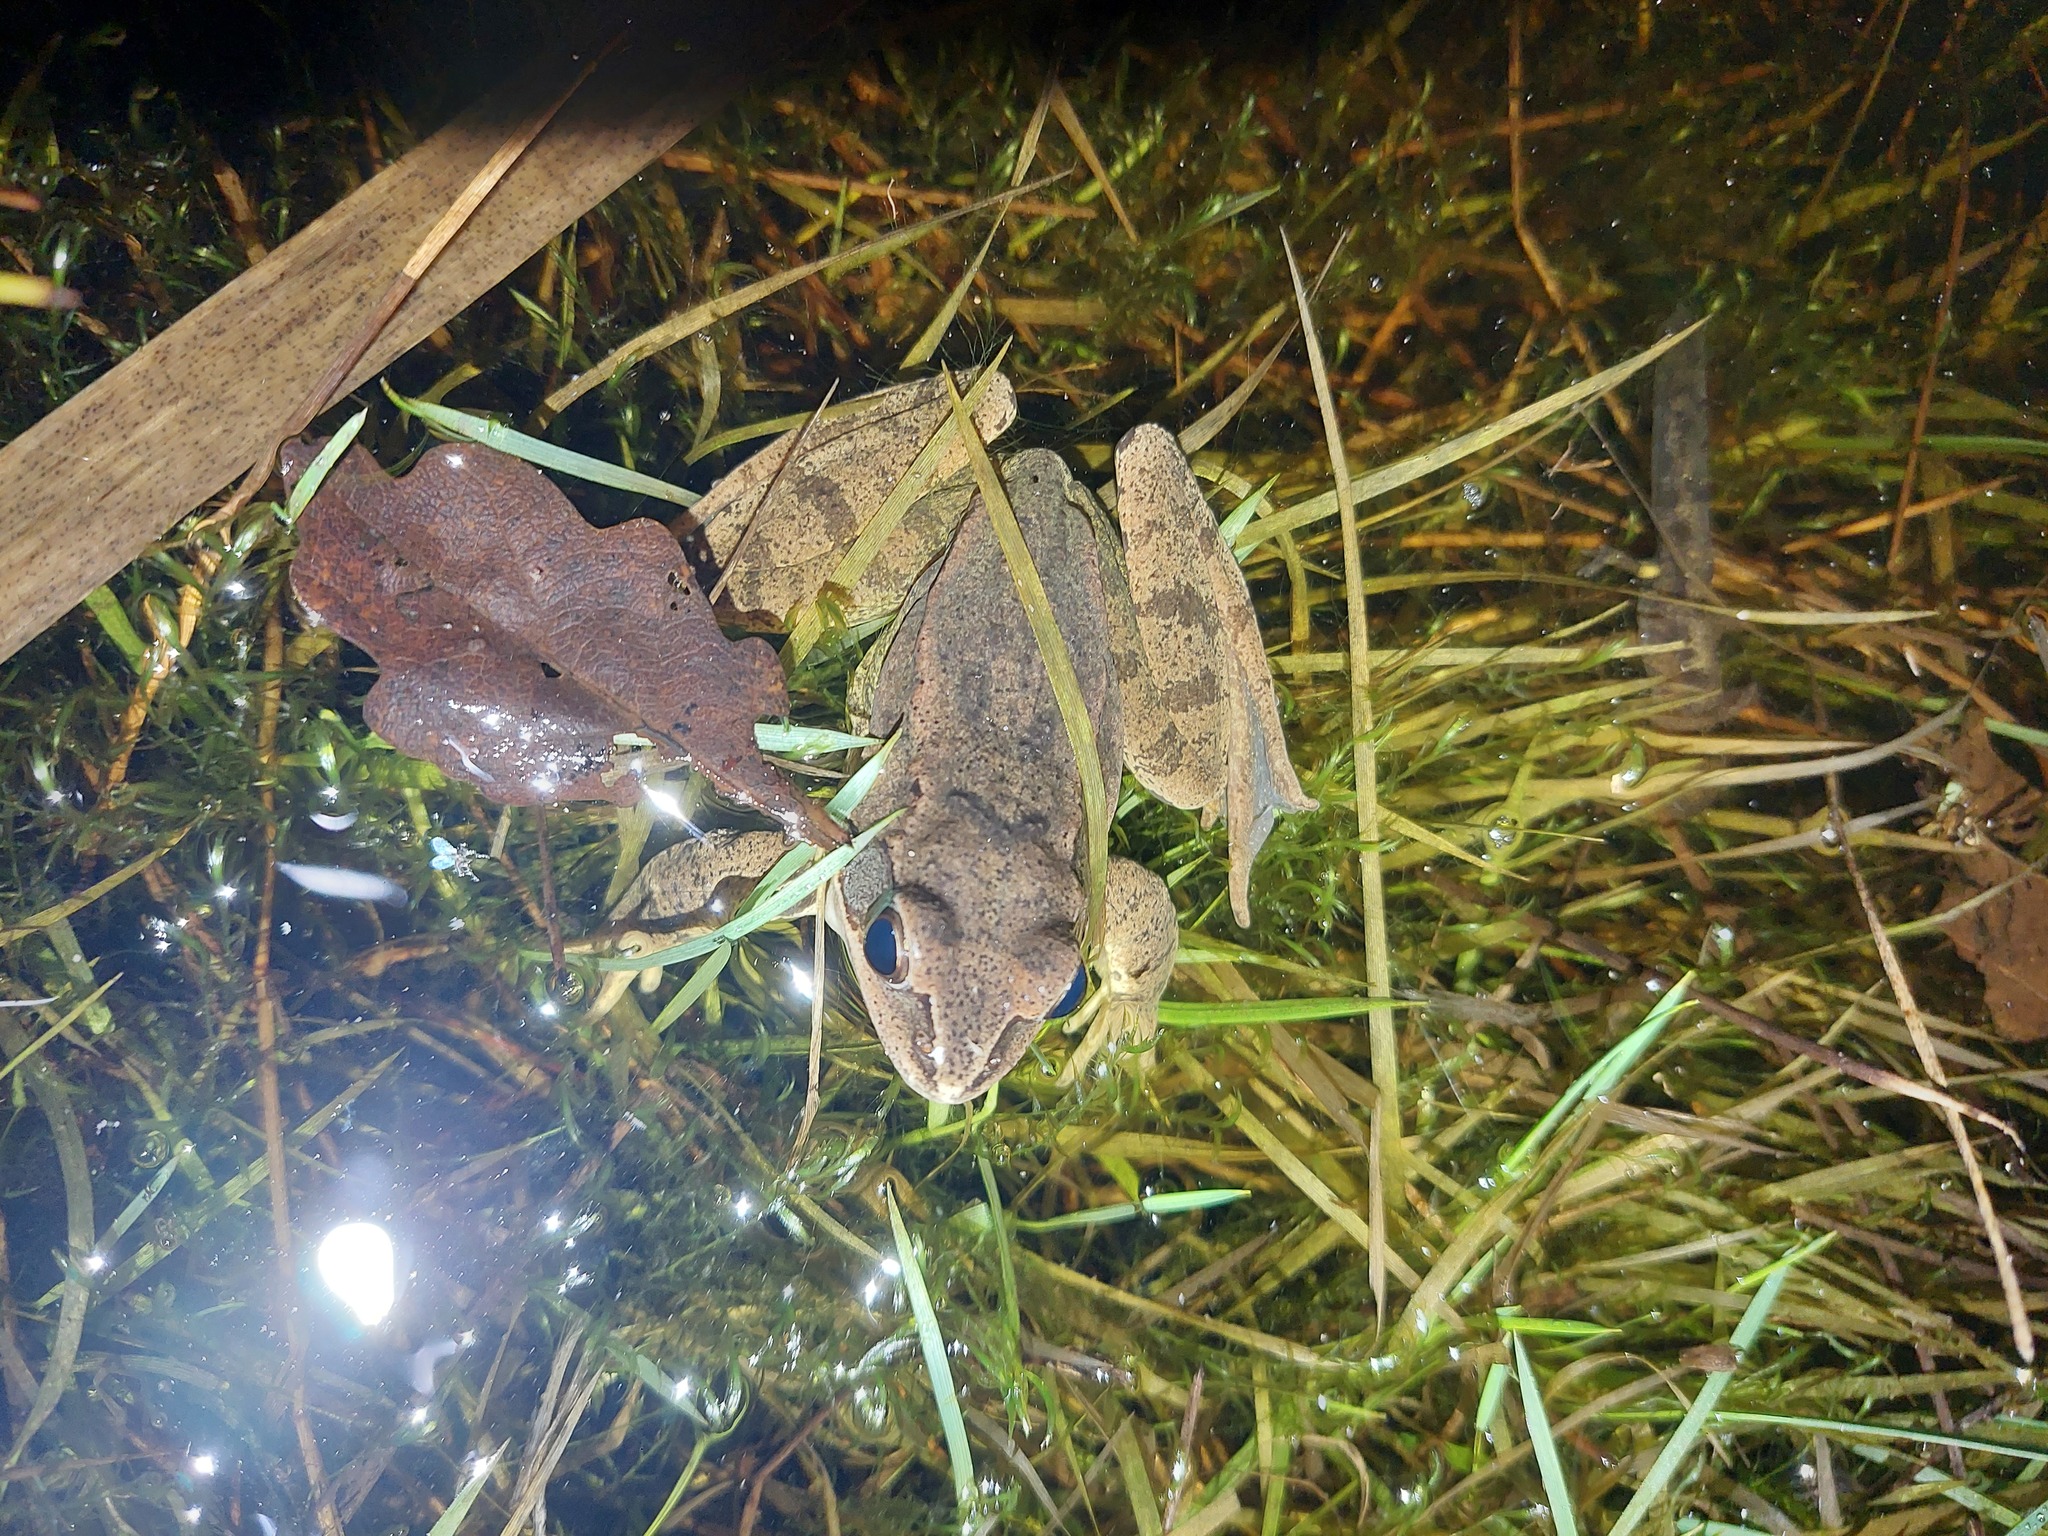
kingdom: Animalia
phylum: Chordata
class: Amphibia
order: Anura
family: Ranidae
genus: Rana
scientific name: Rana dalmatina
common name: Agile frog
